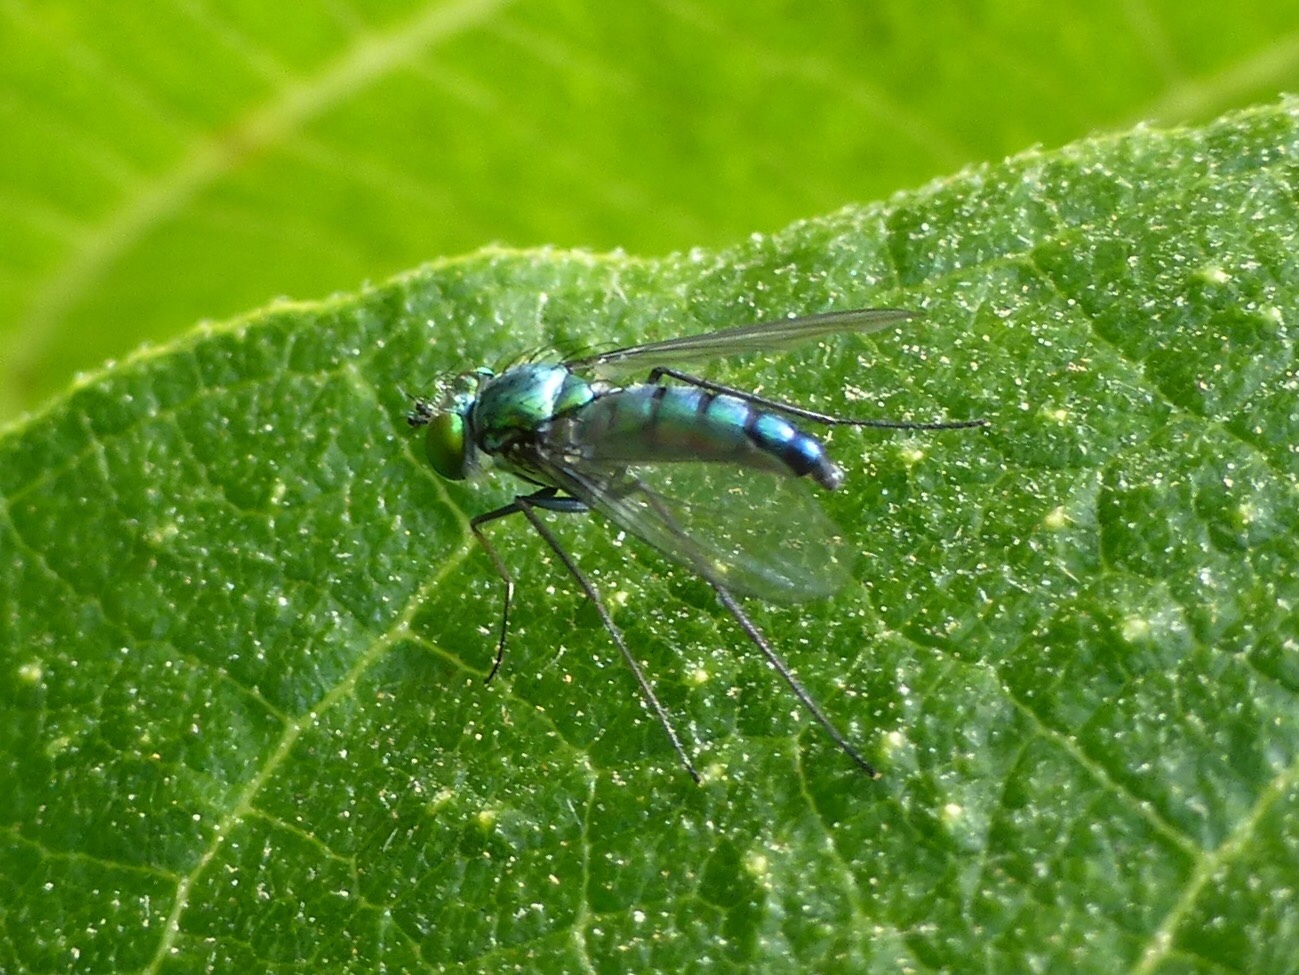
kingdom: Animalia
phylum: Arthropoda
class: Insecta
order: Diptera
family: Dolichopodidae
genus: Condylostylus
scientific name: Condylostylus longicornis
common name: Long-legged fly
